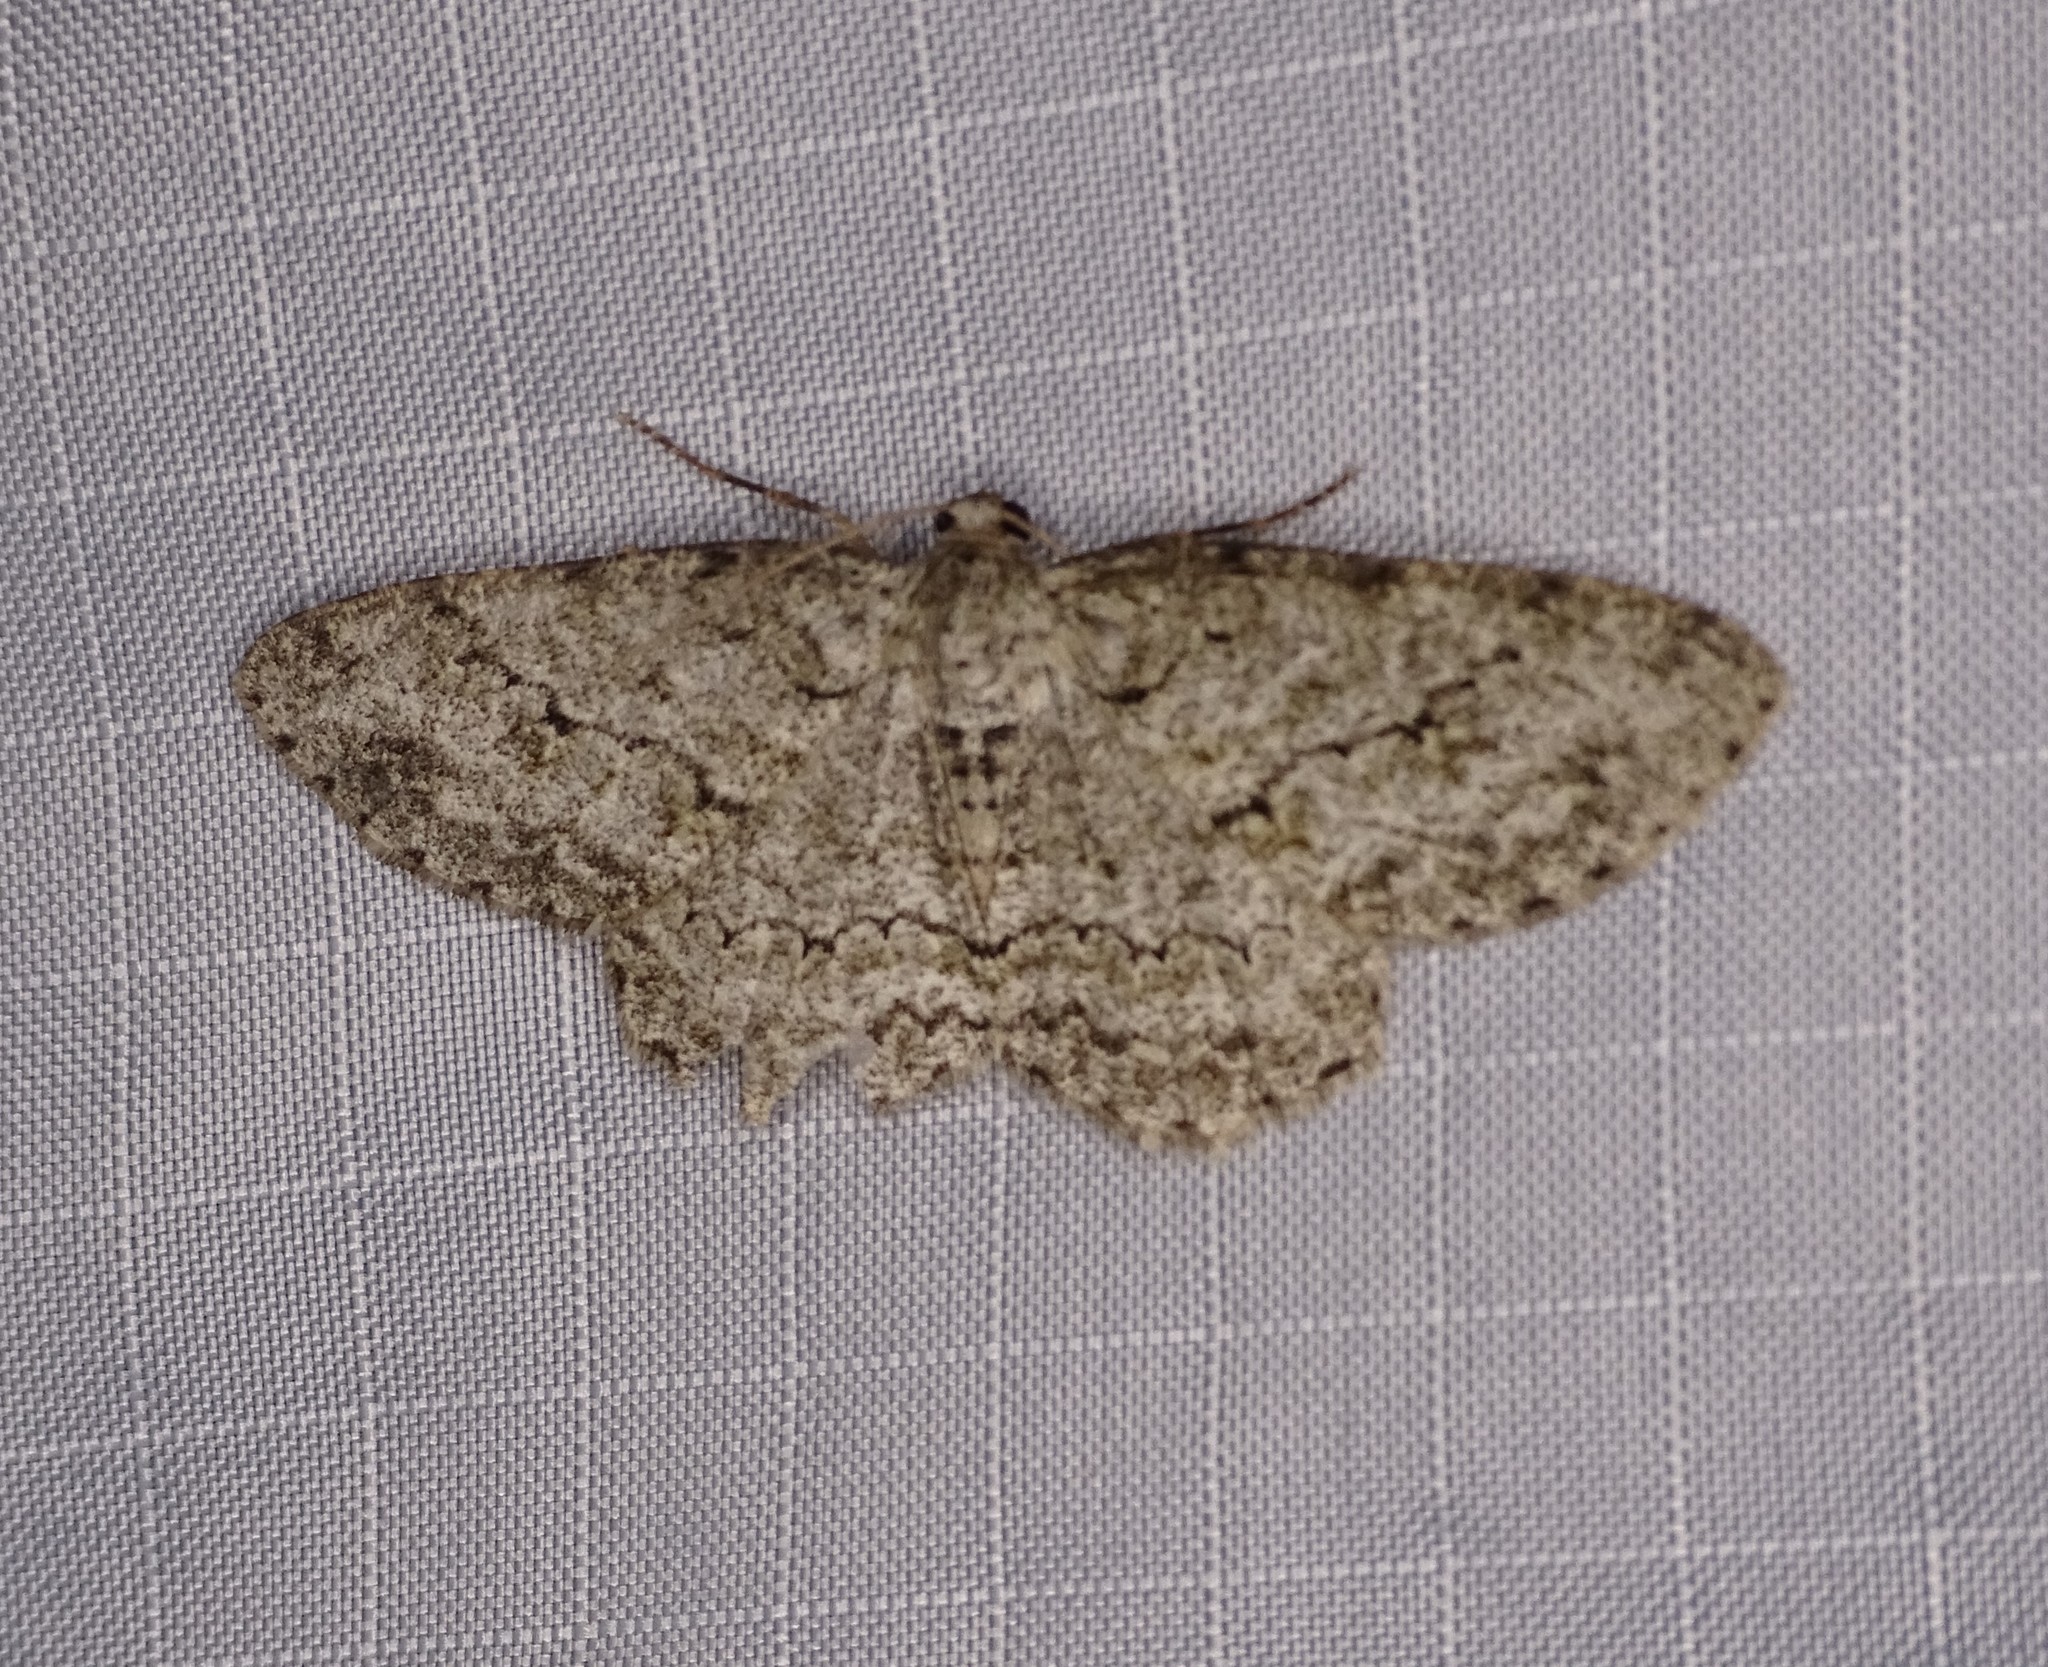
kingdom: Animalia
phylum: Arthropoda
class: Insecta
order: Lepidoptera
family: Geometridae
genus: Ectropis
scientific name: Ectropis crepuscularia
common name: Engrailed
